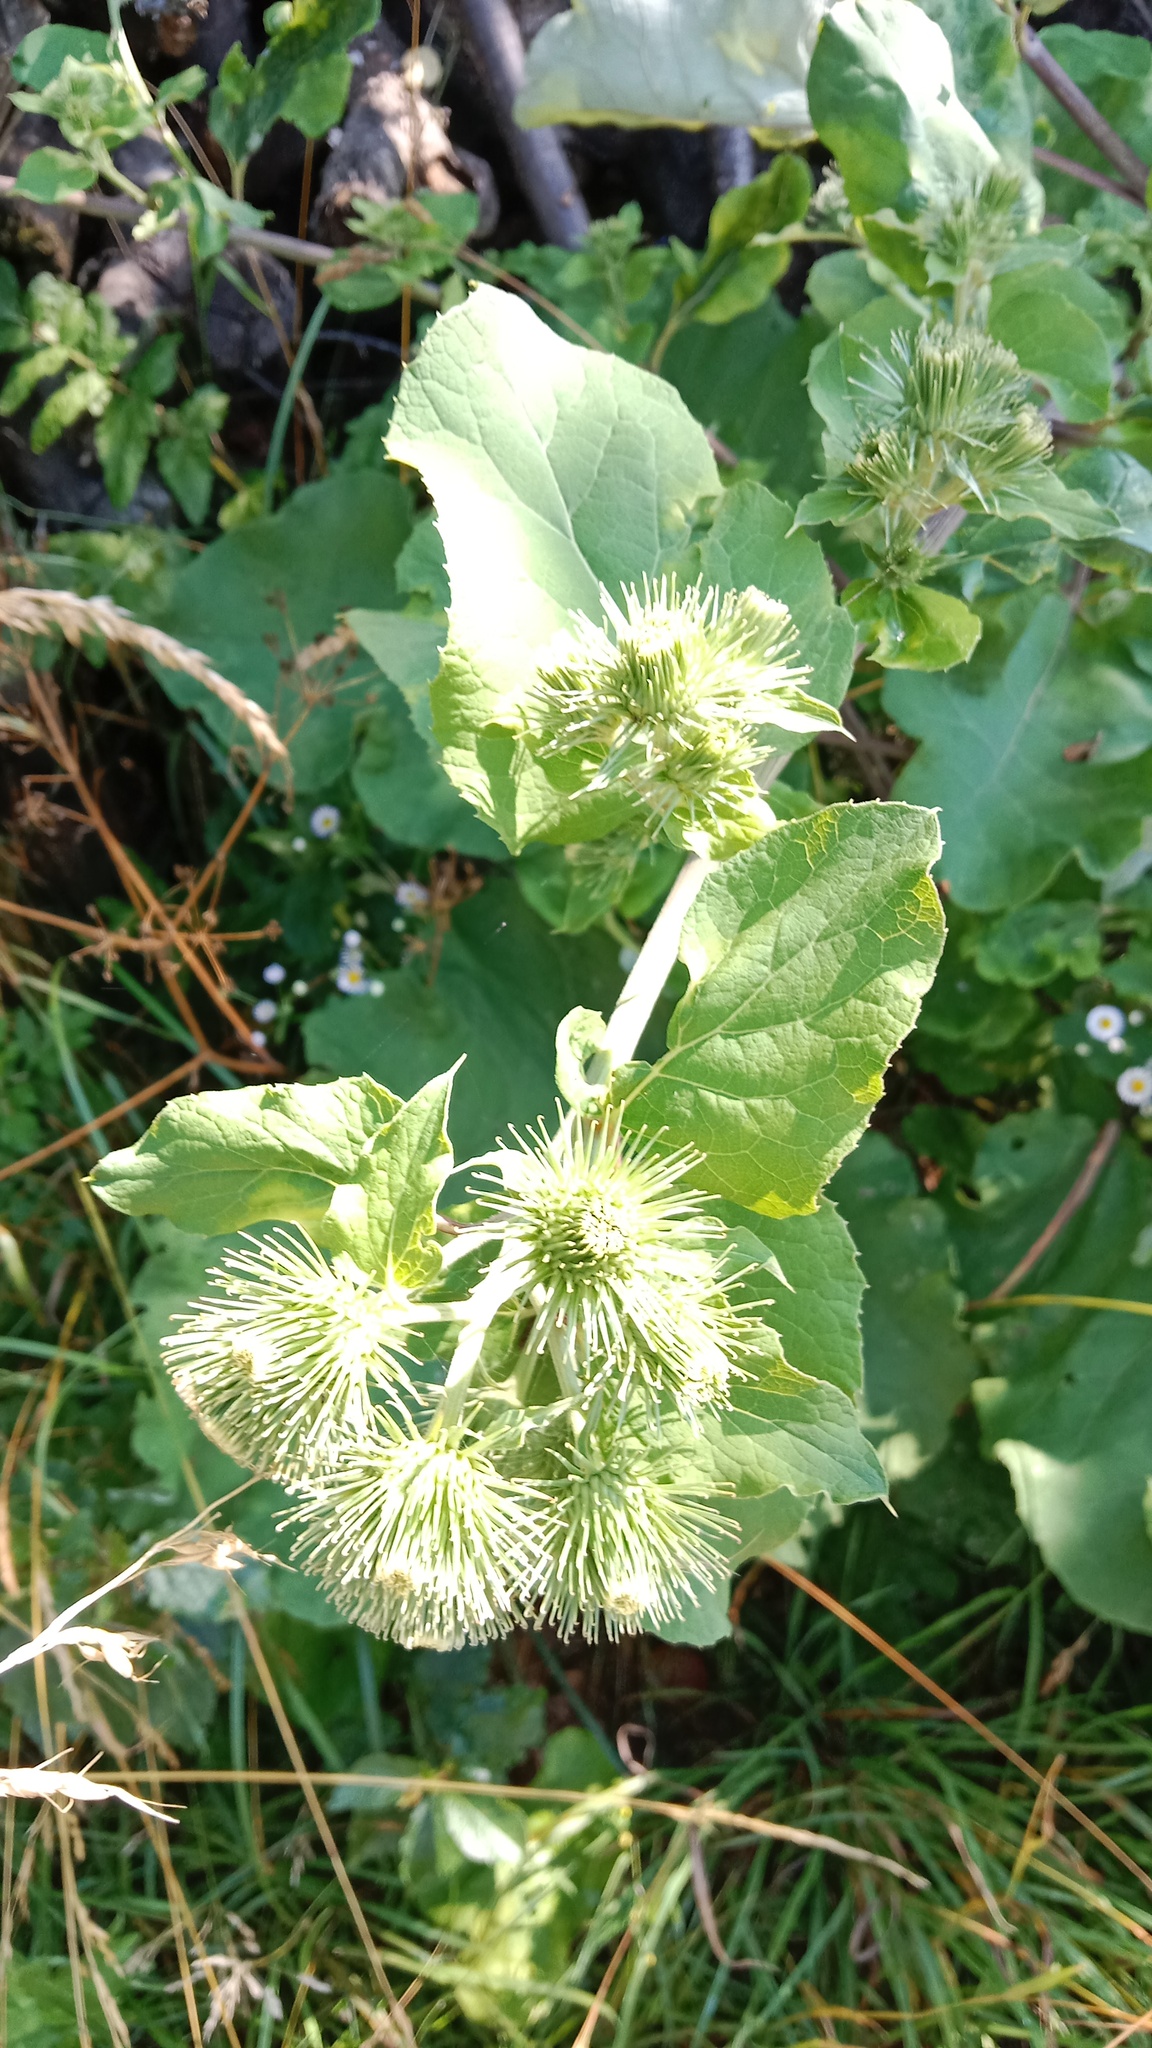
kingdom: Plantae
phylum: Tracheophyta
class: Magnoliopsida
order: Asterales
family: Asteraceae
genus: Arctium
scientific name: Arctium lappa
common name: Greater burdock
